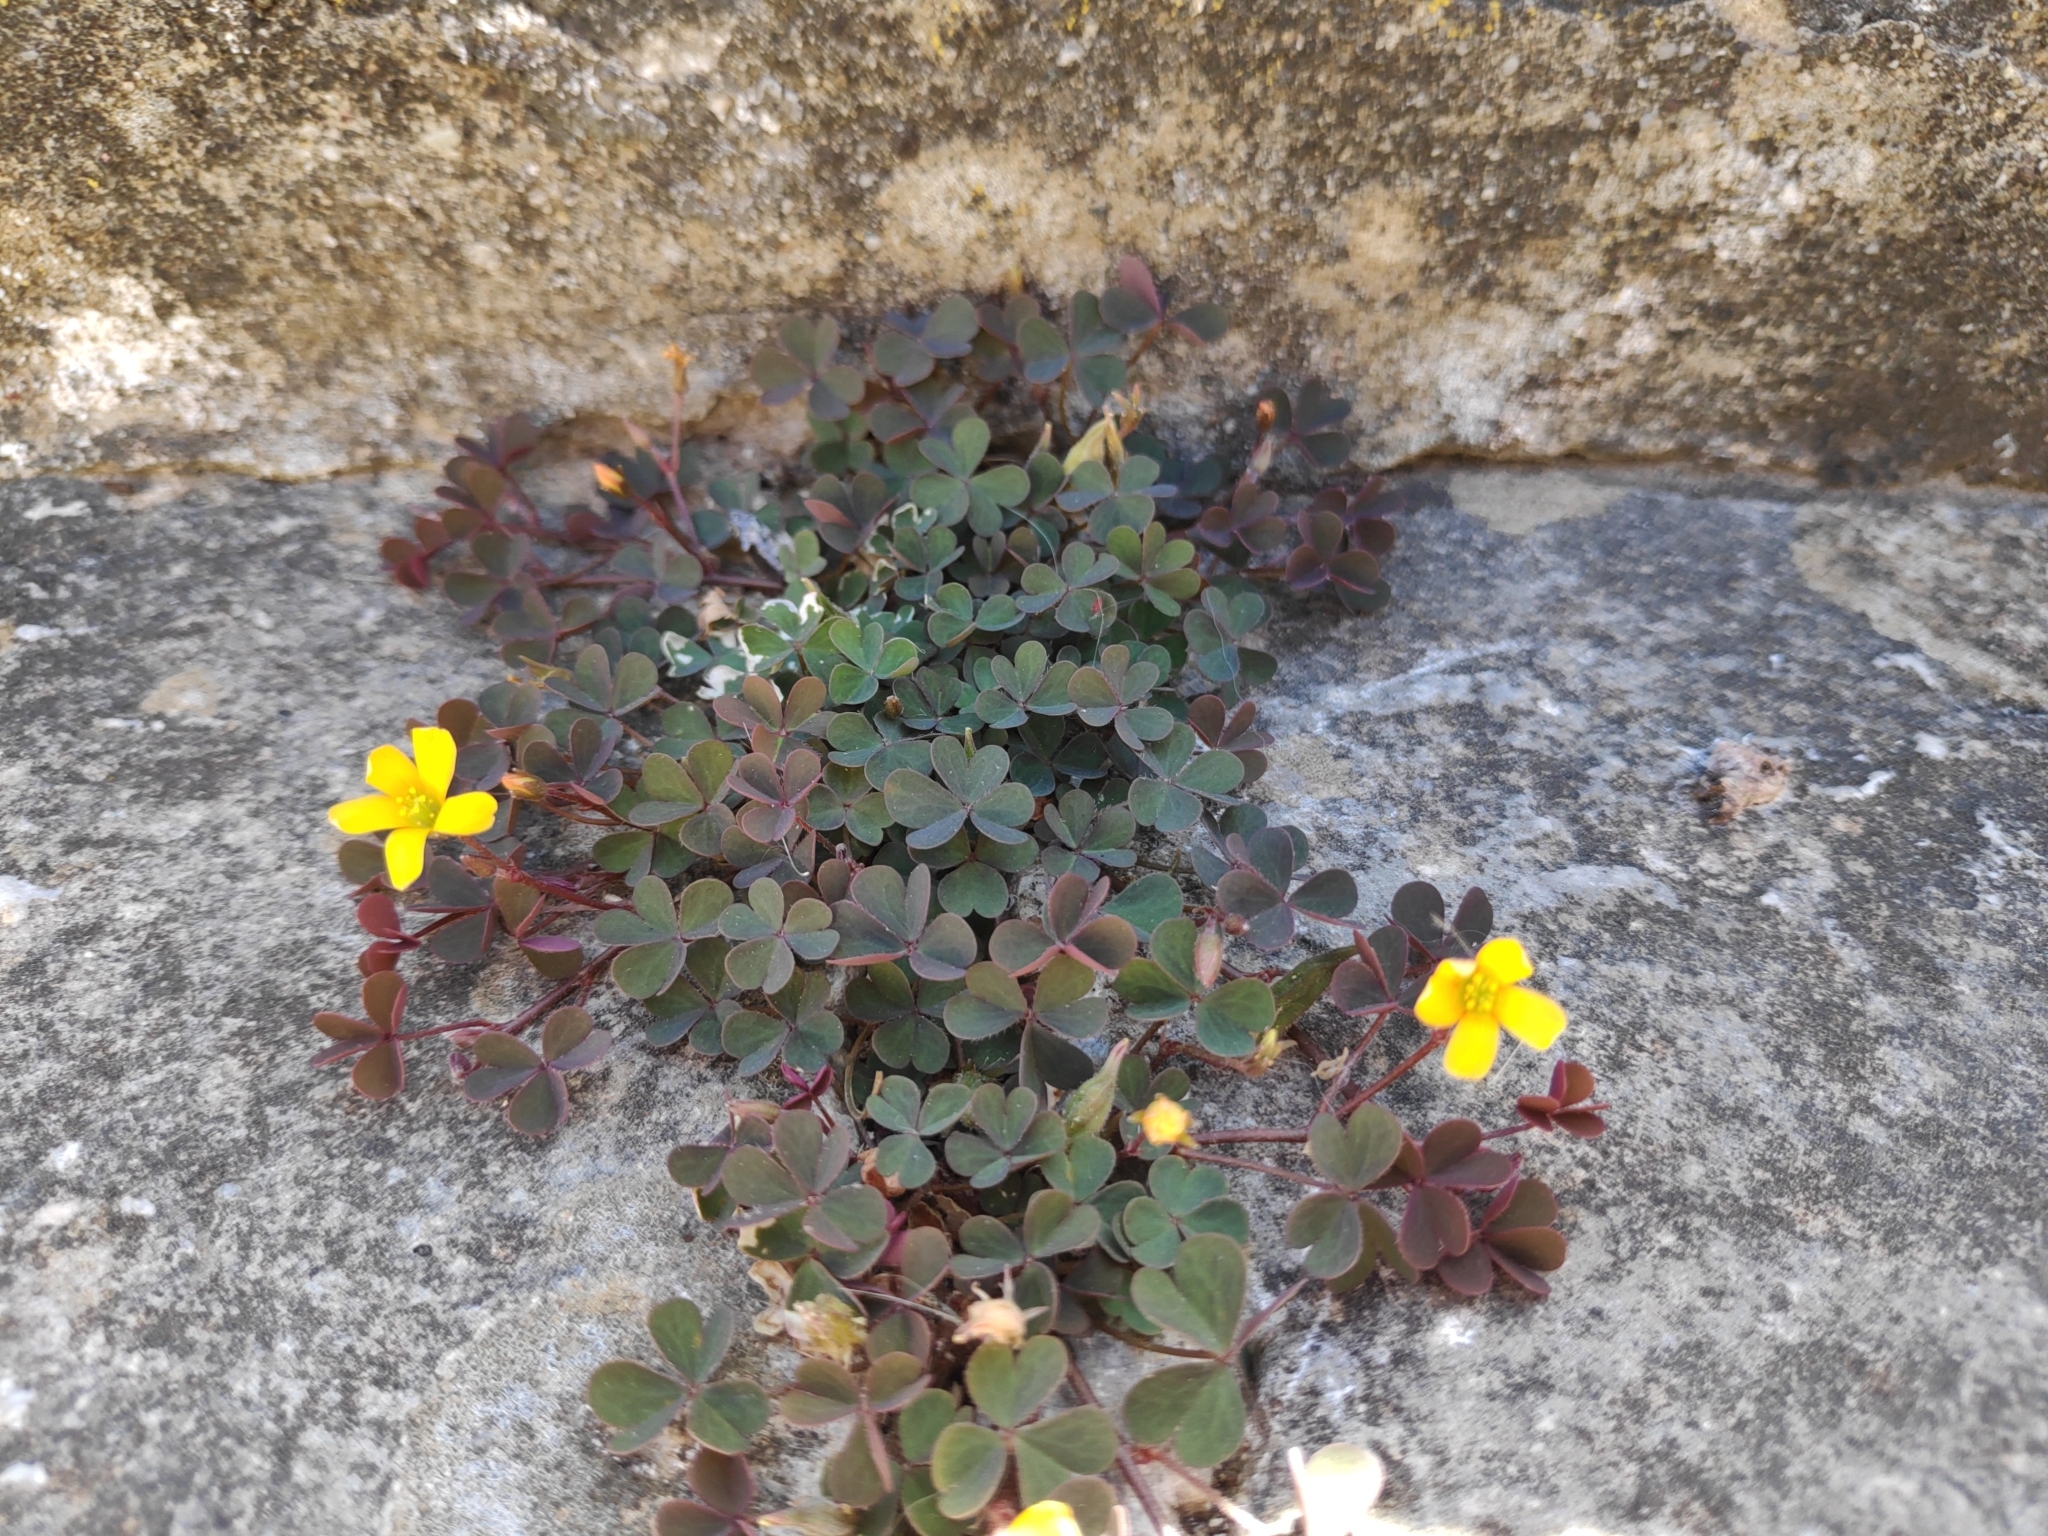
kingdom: Plantae
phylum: Tracheophyta
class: Magnoliopsida
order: Oxalidales
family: Oxalidaceae
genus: Oxalis
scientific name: Oxalis corniculata
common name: Procumbent yellow-sorrel
